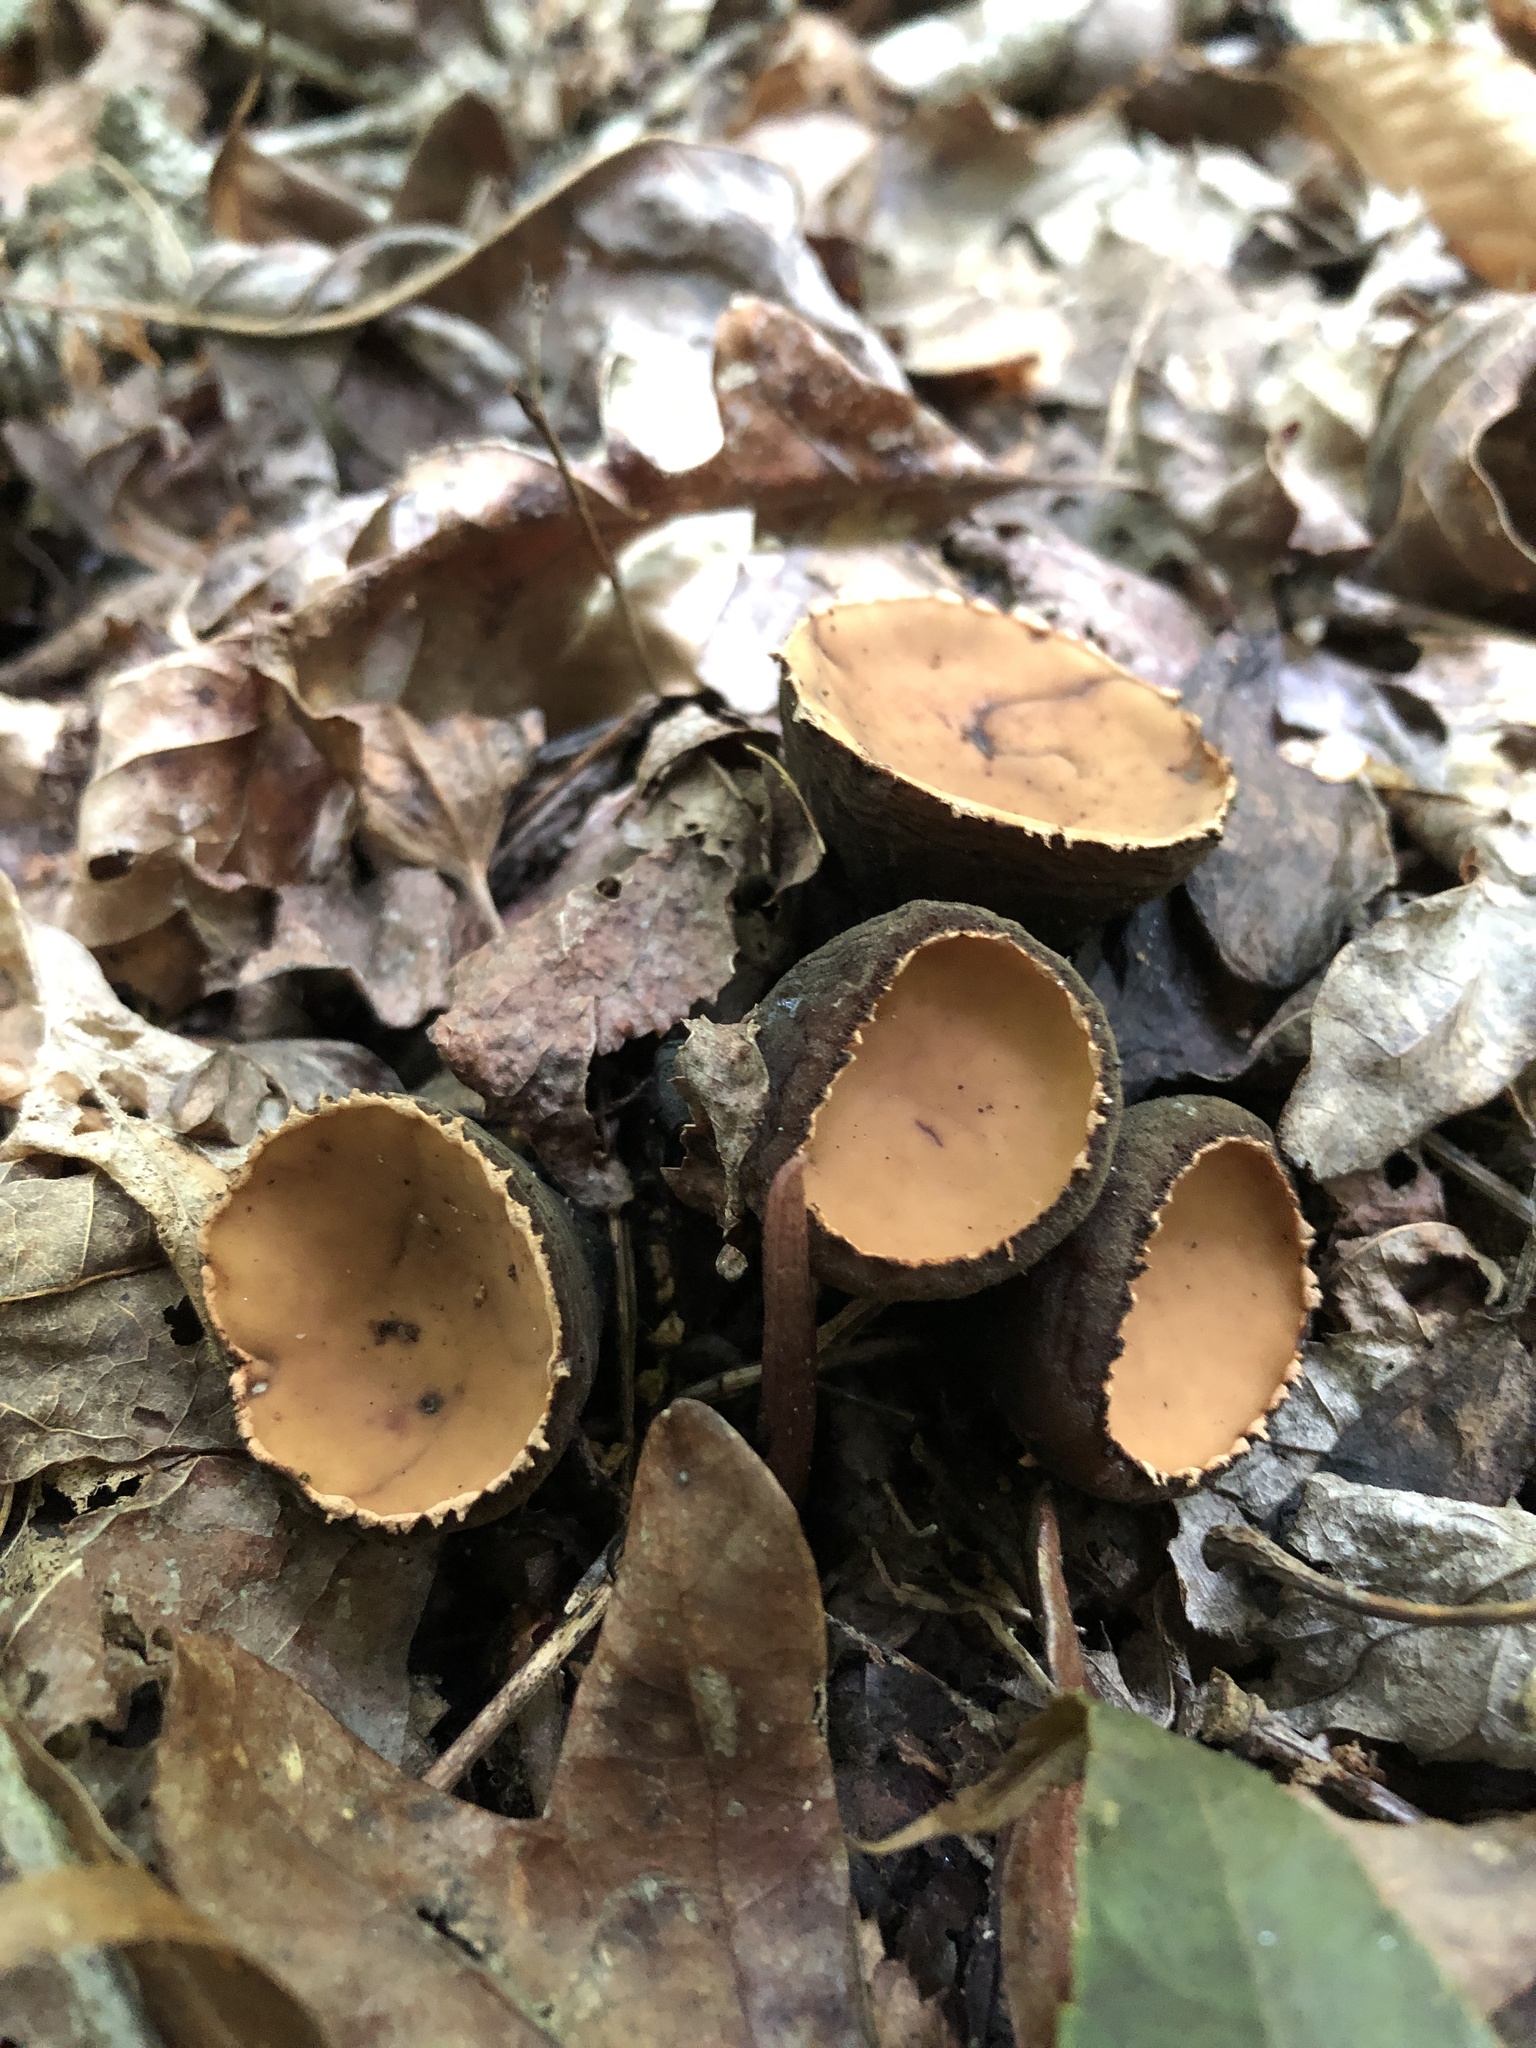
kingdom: Fungi
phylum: Ascomycota
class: Pezizomycetes
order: Pezizales
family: Sarcosomataceae
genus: Galiella
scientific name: Galiella rufa
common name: Hairy rubber cup
